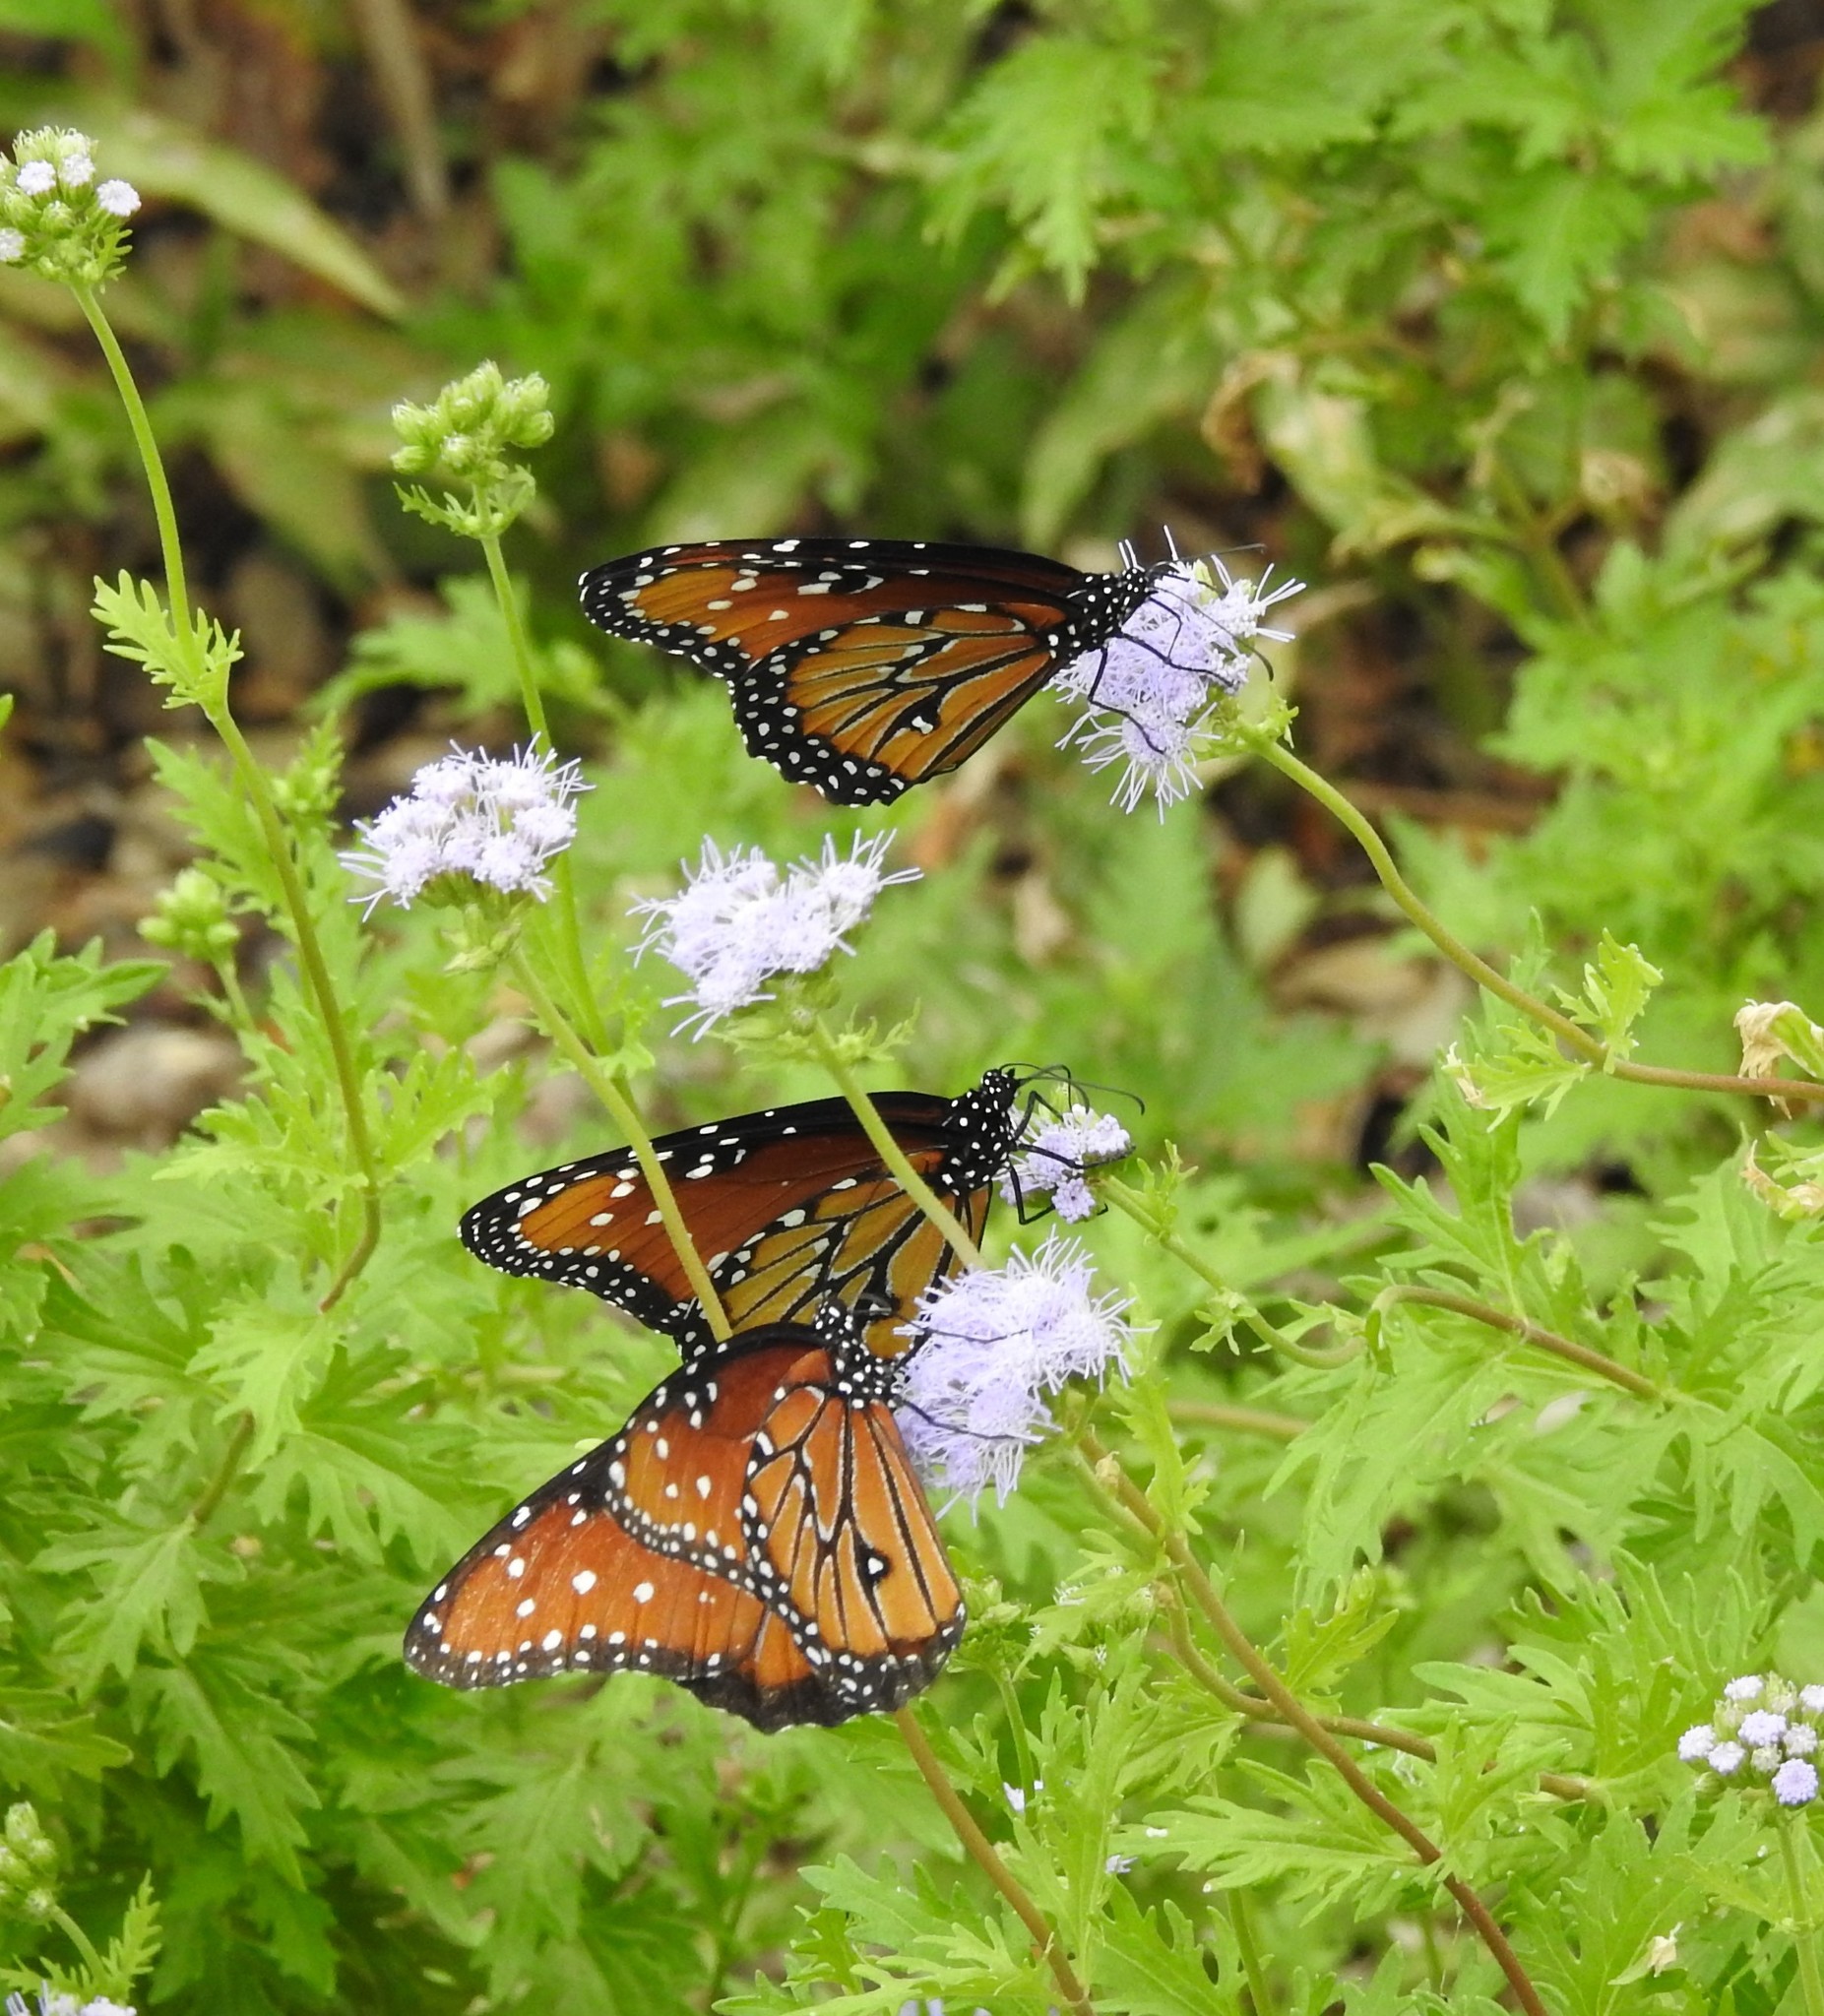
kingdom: Animalia
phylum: Arthropoda
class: Insecta
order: Lepidoptera
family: Nymphalidae
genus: Danaus
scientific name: Danaus gilippus
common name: Queen
